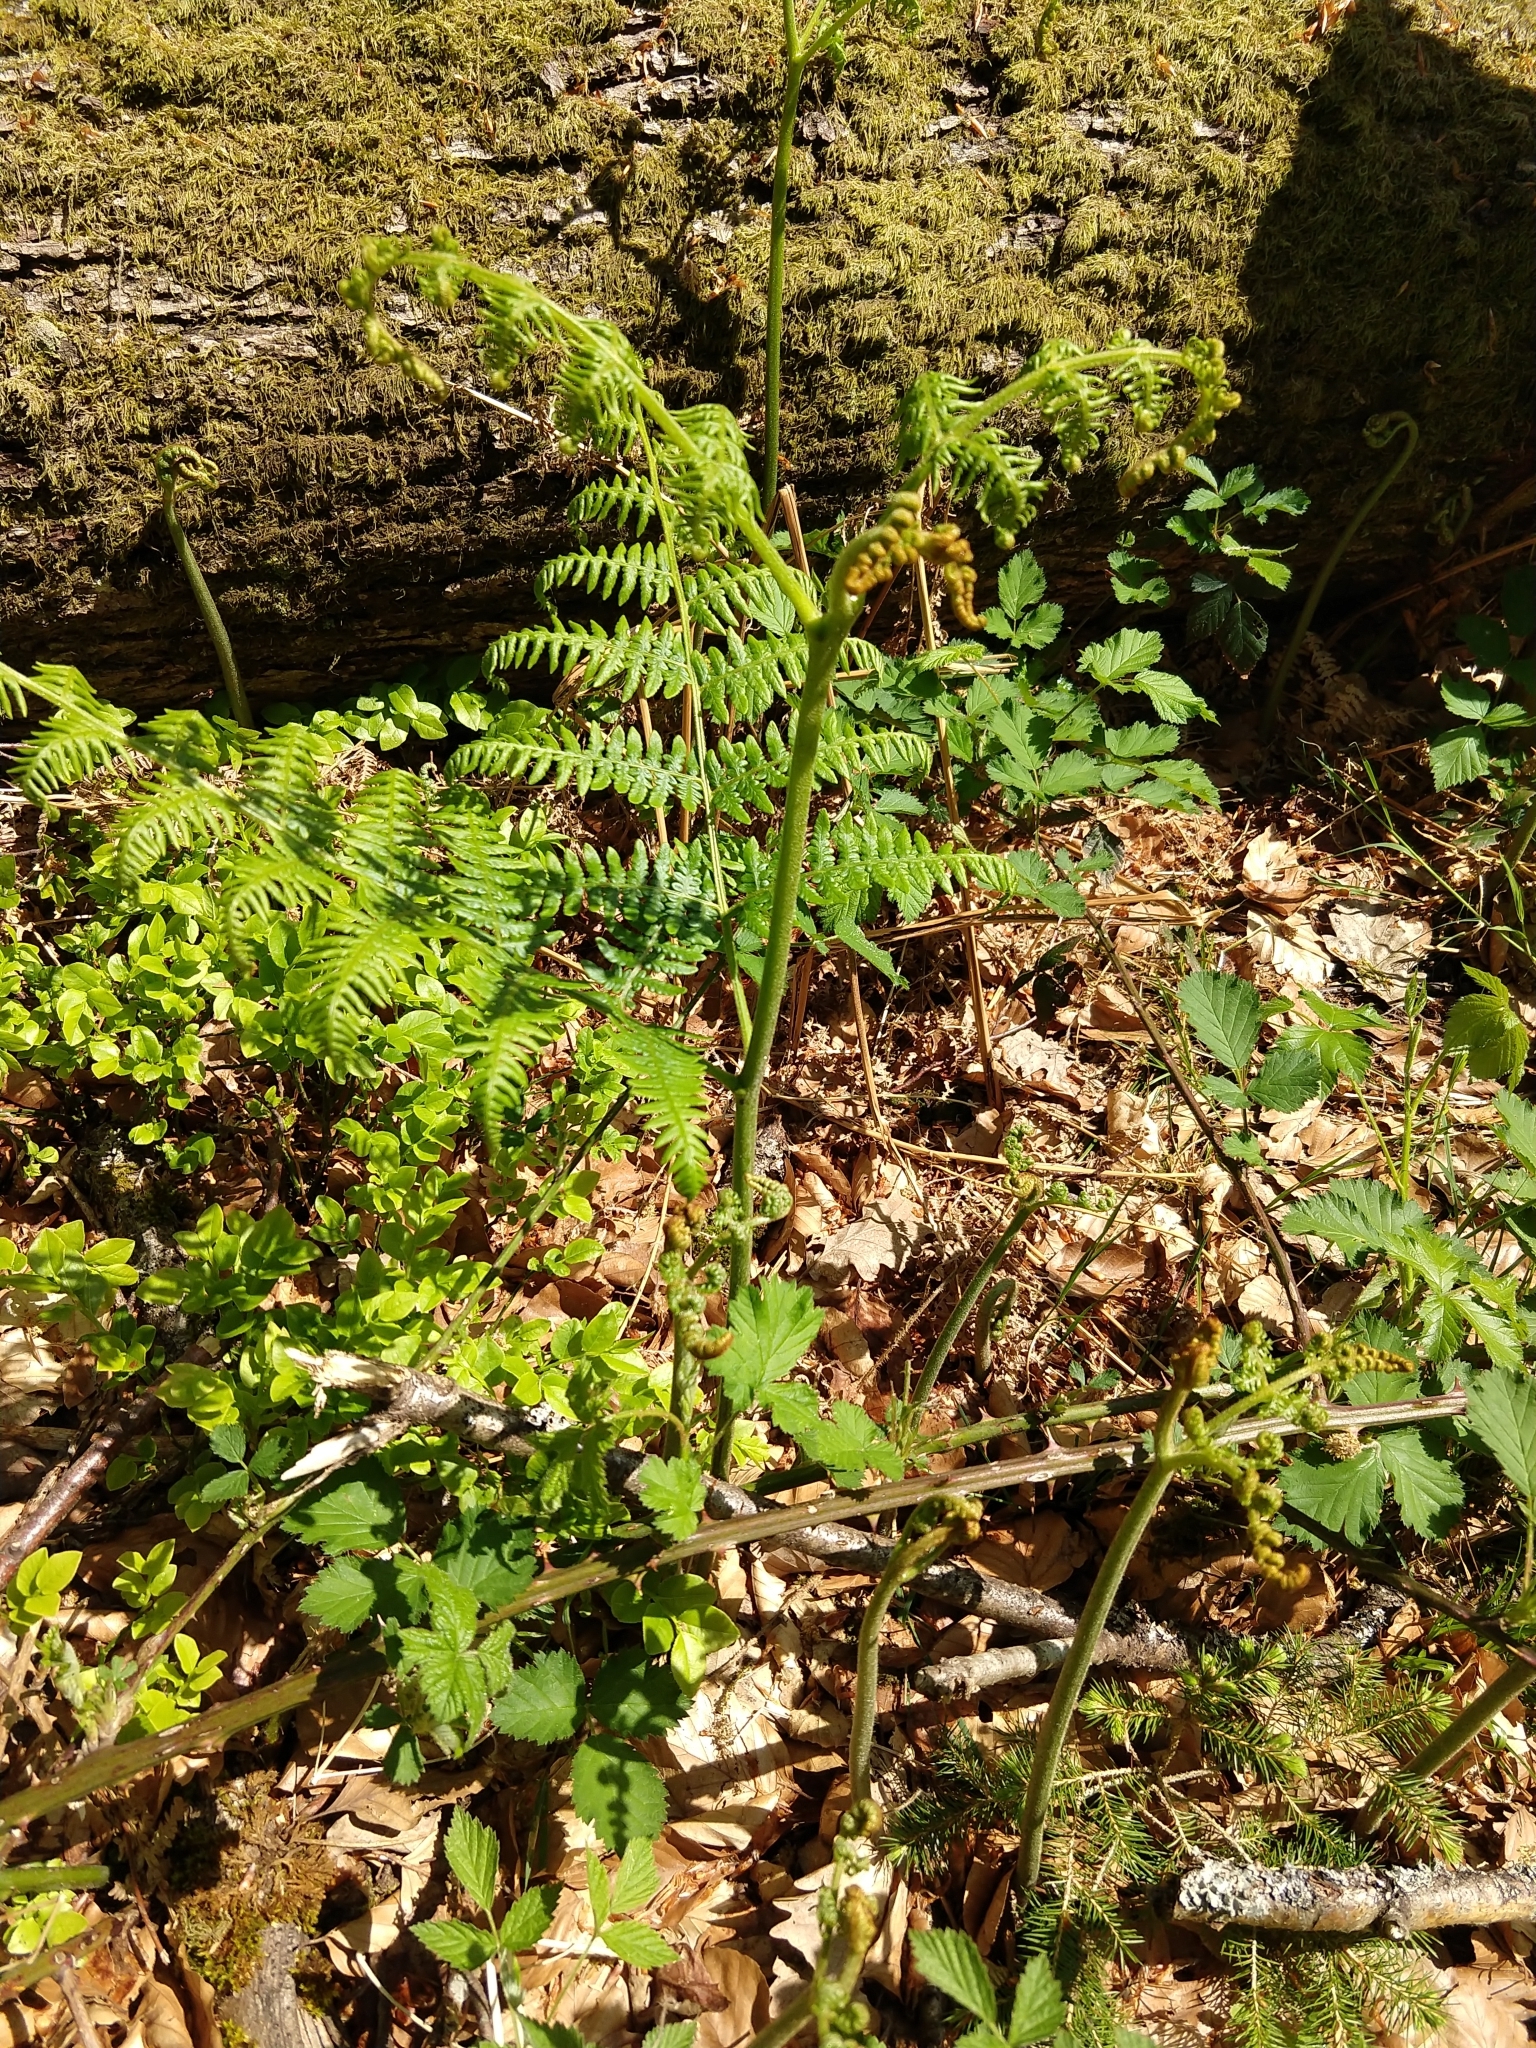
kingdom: Plantae
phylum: Tracheophyta
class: Polypodiopsida
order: Polypodiales
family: Dennstaedtiaceae
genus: Pteridium
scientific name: Pteridium aquilinum
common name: Bracken
